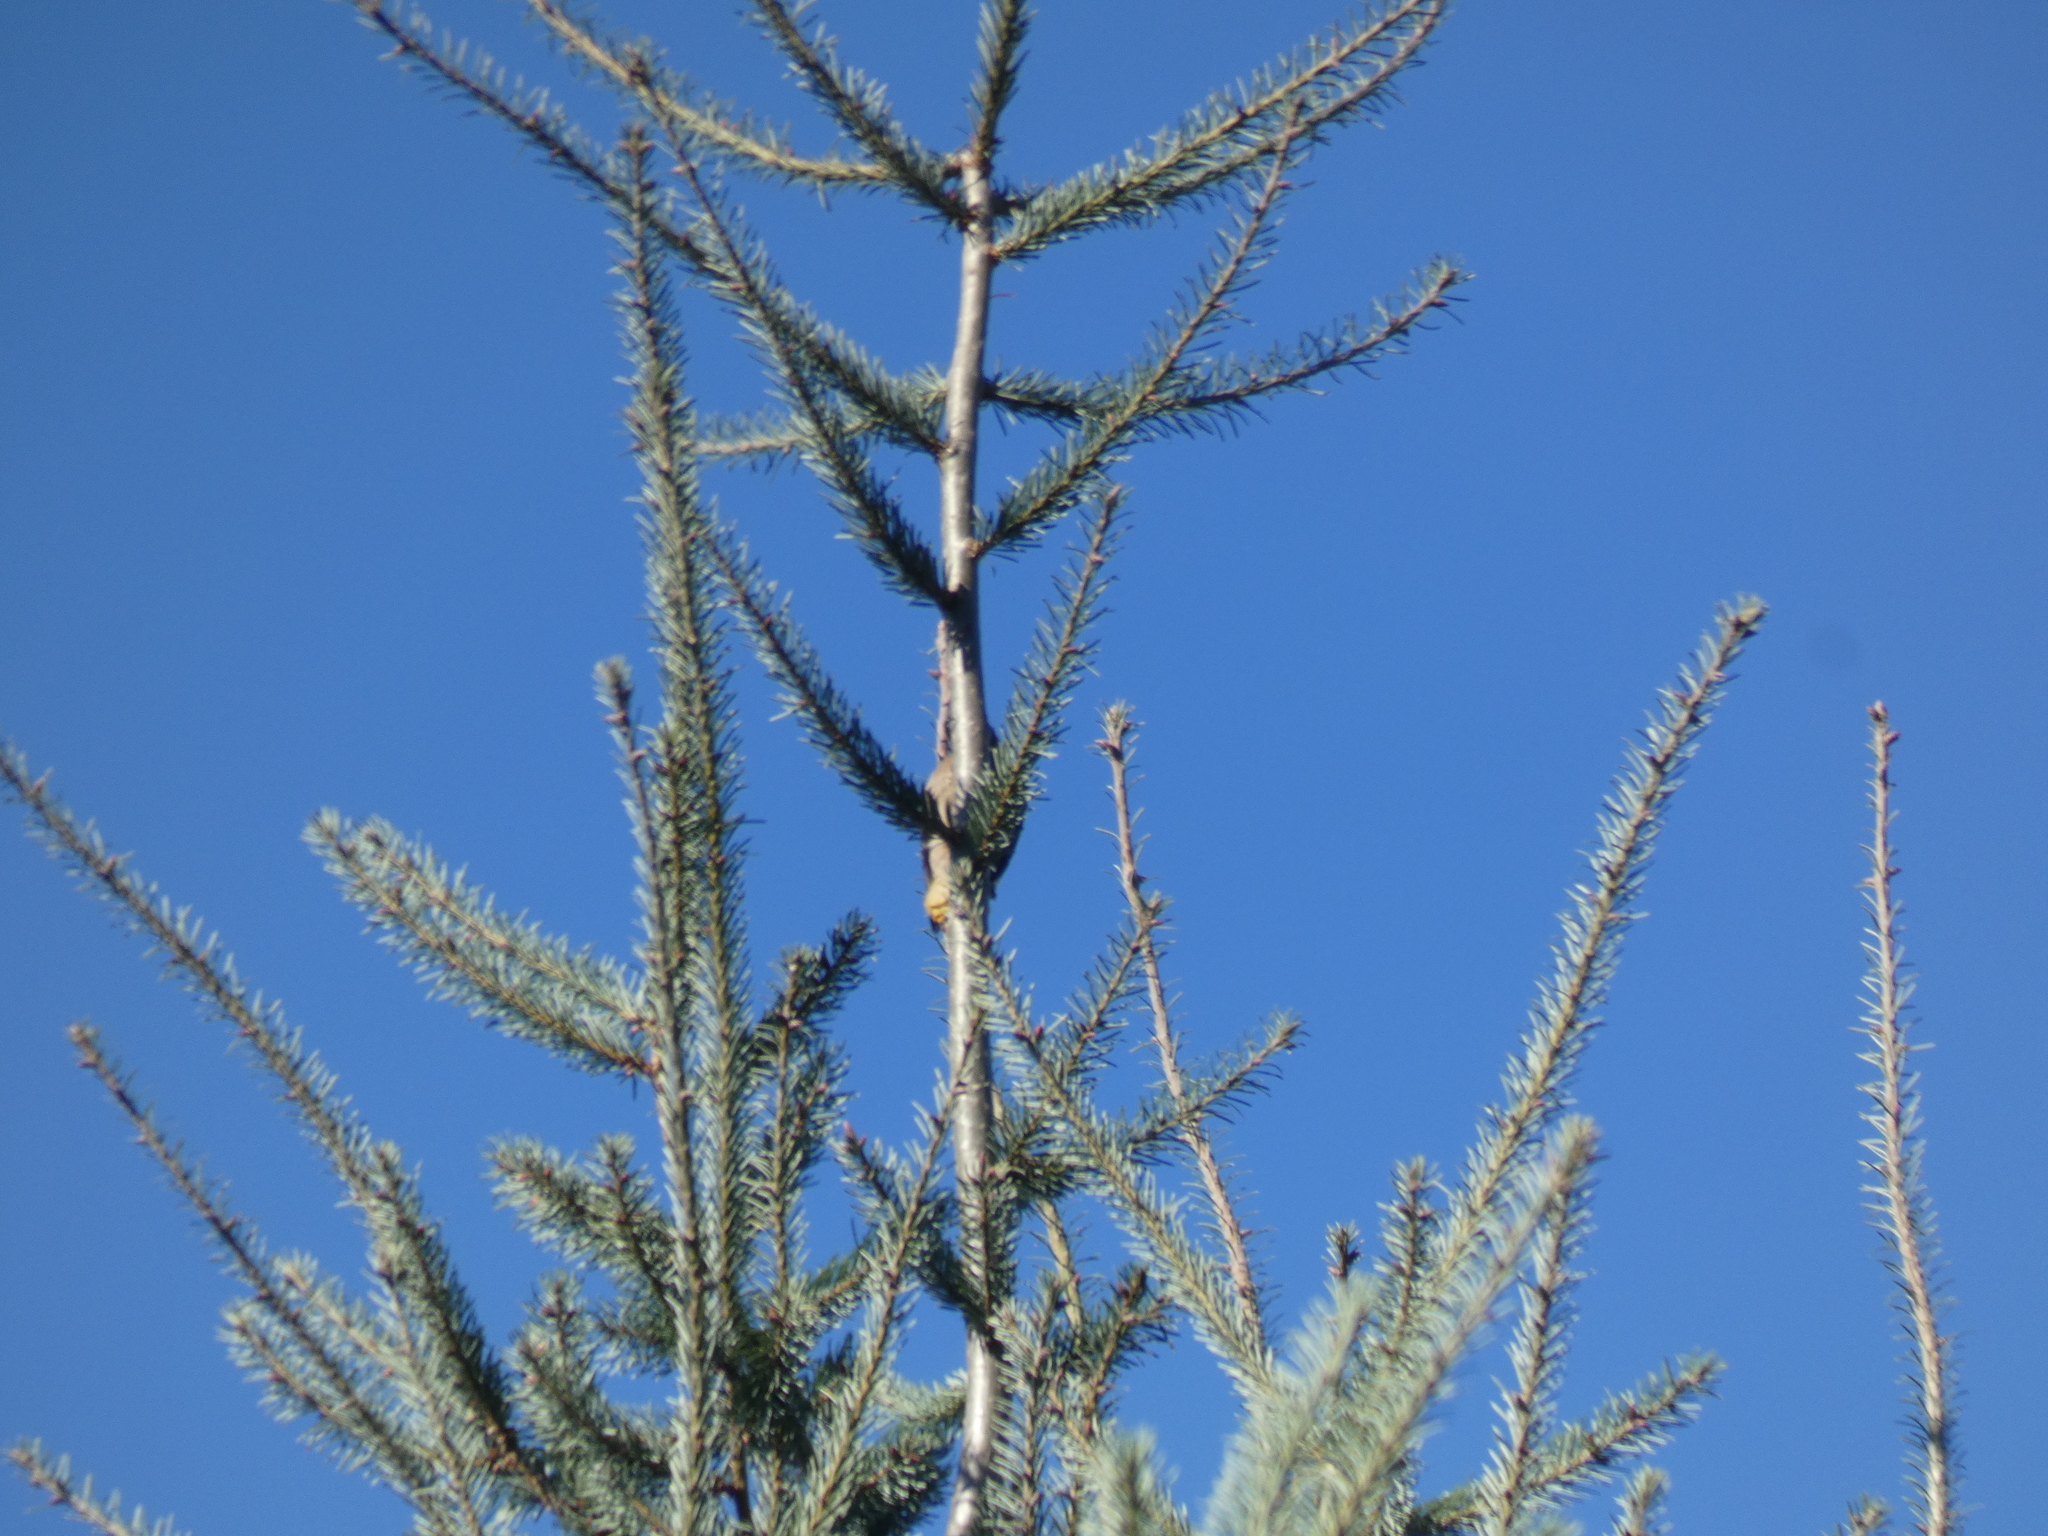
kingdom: Animalia
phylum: Chordata
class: Aves
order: Piciformes
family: Picidae
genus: Leuconotopicus
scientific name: Leuconotopicus villosus
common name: Hairy woodpecker
